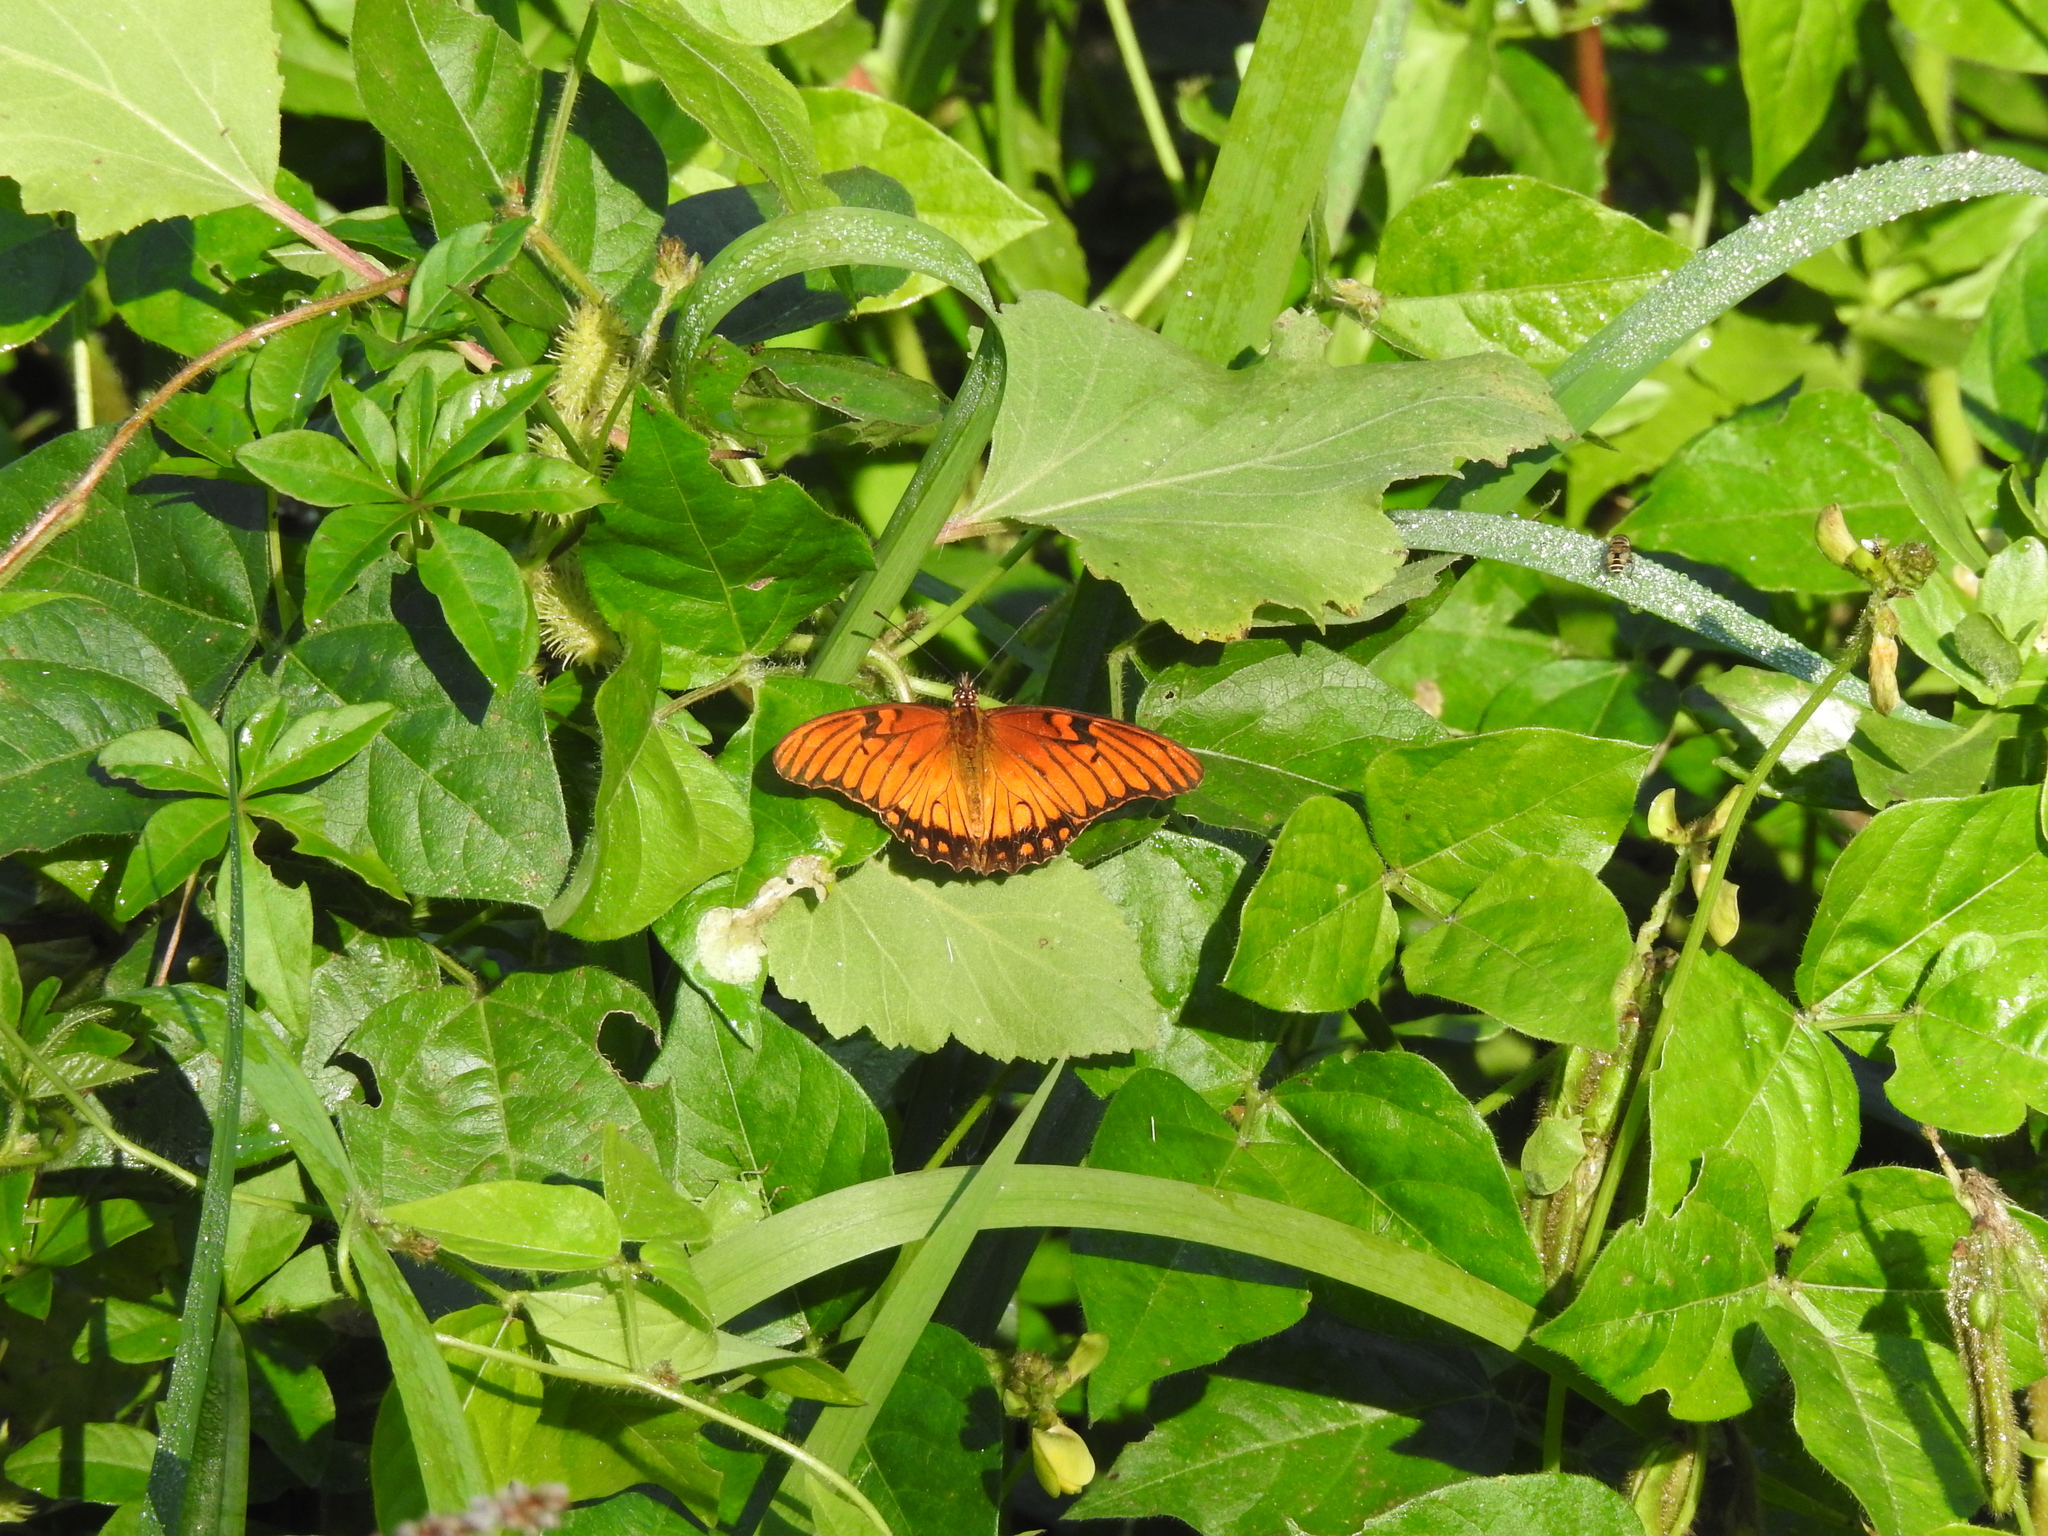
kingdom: Animalia
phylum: Arthropoda
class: Insecta
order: Lepidoptera
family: Nymphalidae
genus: Dione
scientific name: Dione moneta
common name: Mexican silverspot
